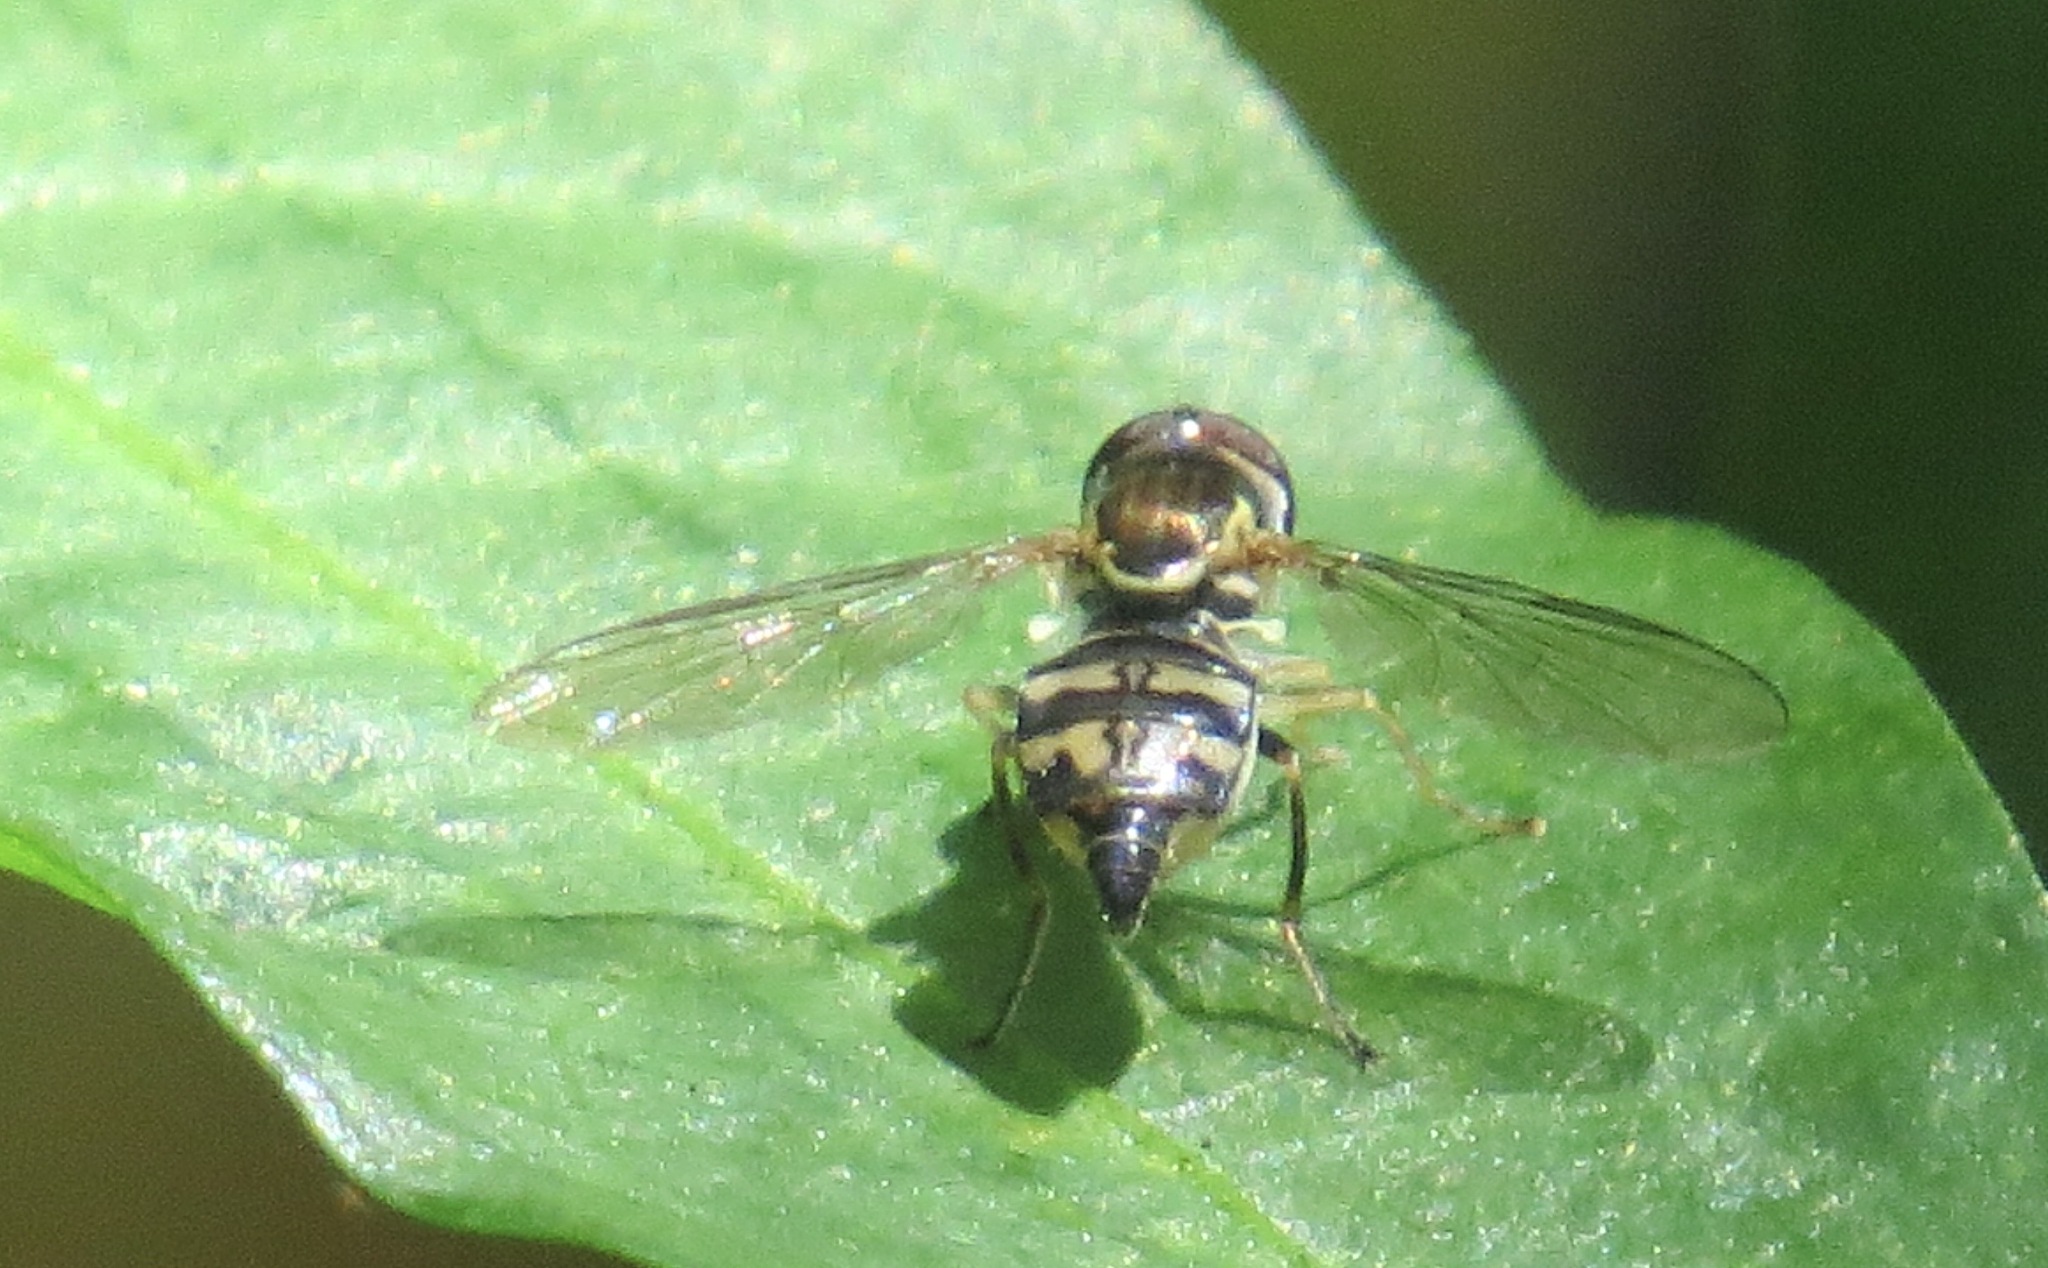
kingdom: Animalia
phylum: Arthropoda
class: Insecta
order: Diptera
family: Syrphidae
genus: Toxomerus
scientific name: Toxomerus occidentalis
